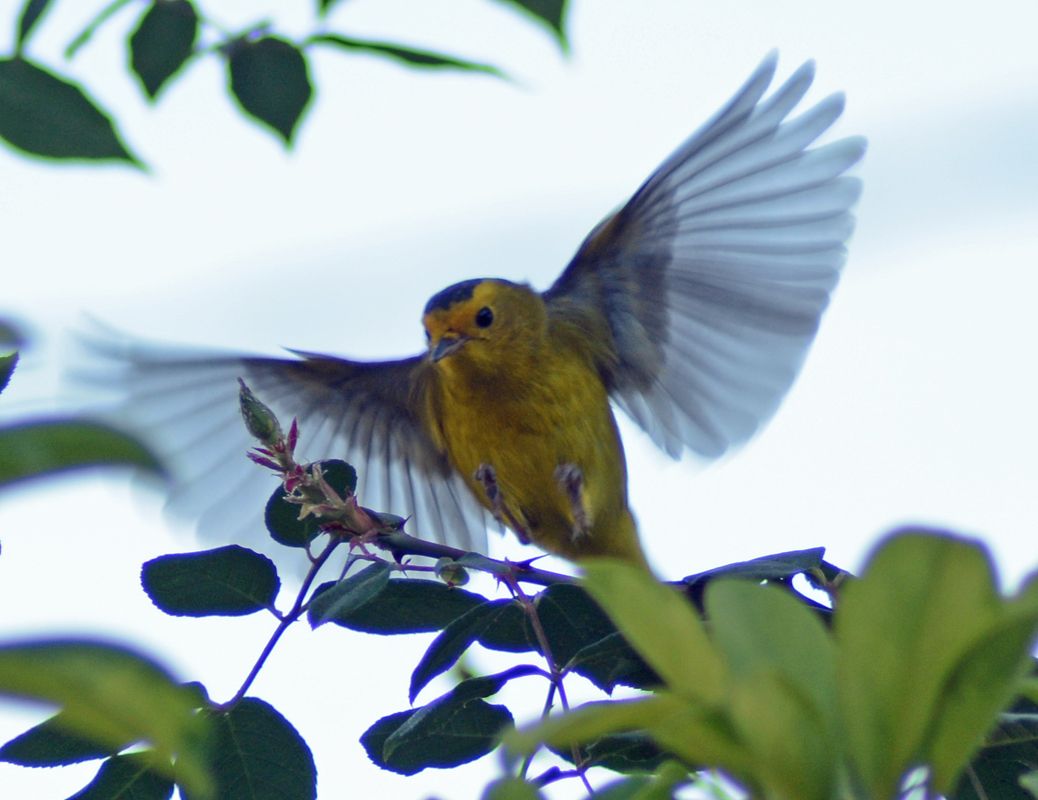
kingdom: Animalia
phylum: Chordata
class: Aves
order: Passeriformes
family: Parulidae
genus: Cardellina
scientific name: Cardellina pusilla
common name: Wilson's warbler
